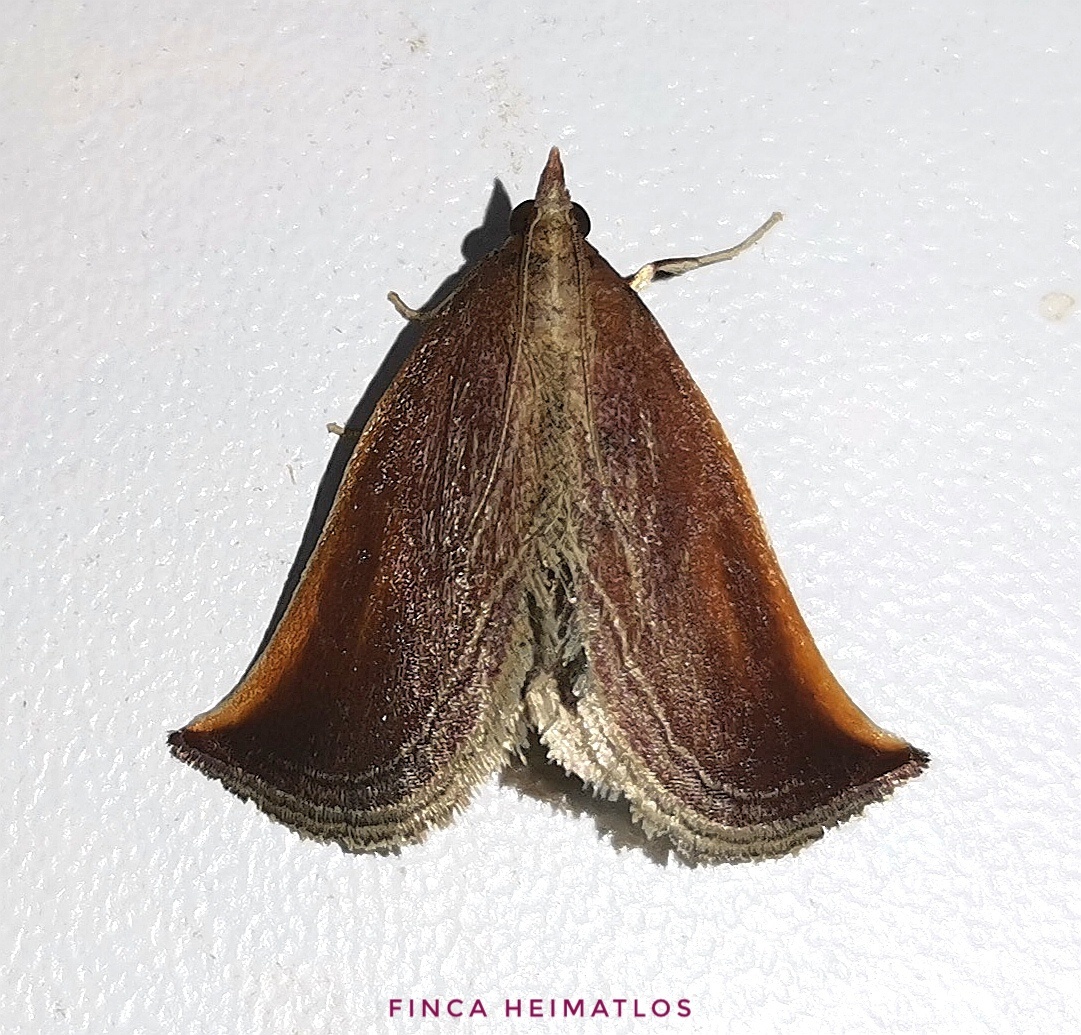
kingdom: Animalia
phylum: Arthropoda
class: Insecta
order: Lepidoptera
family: Pyralidae
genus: Zanclodes
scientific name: Zanclodes falculalis
